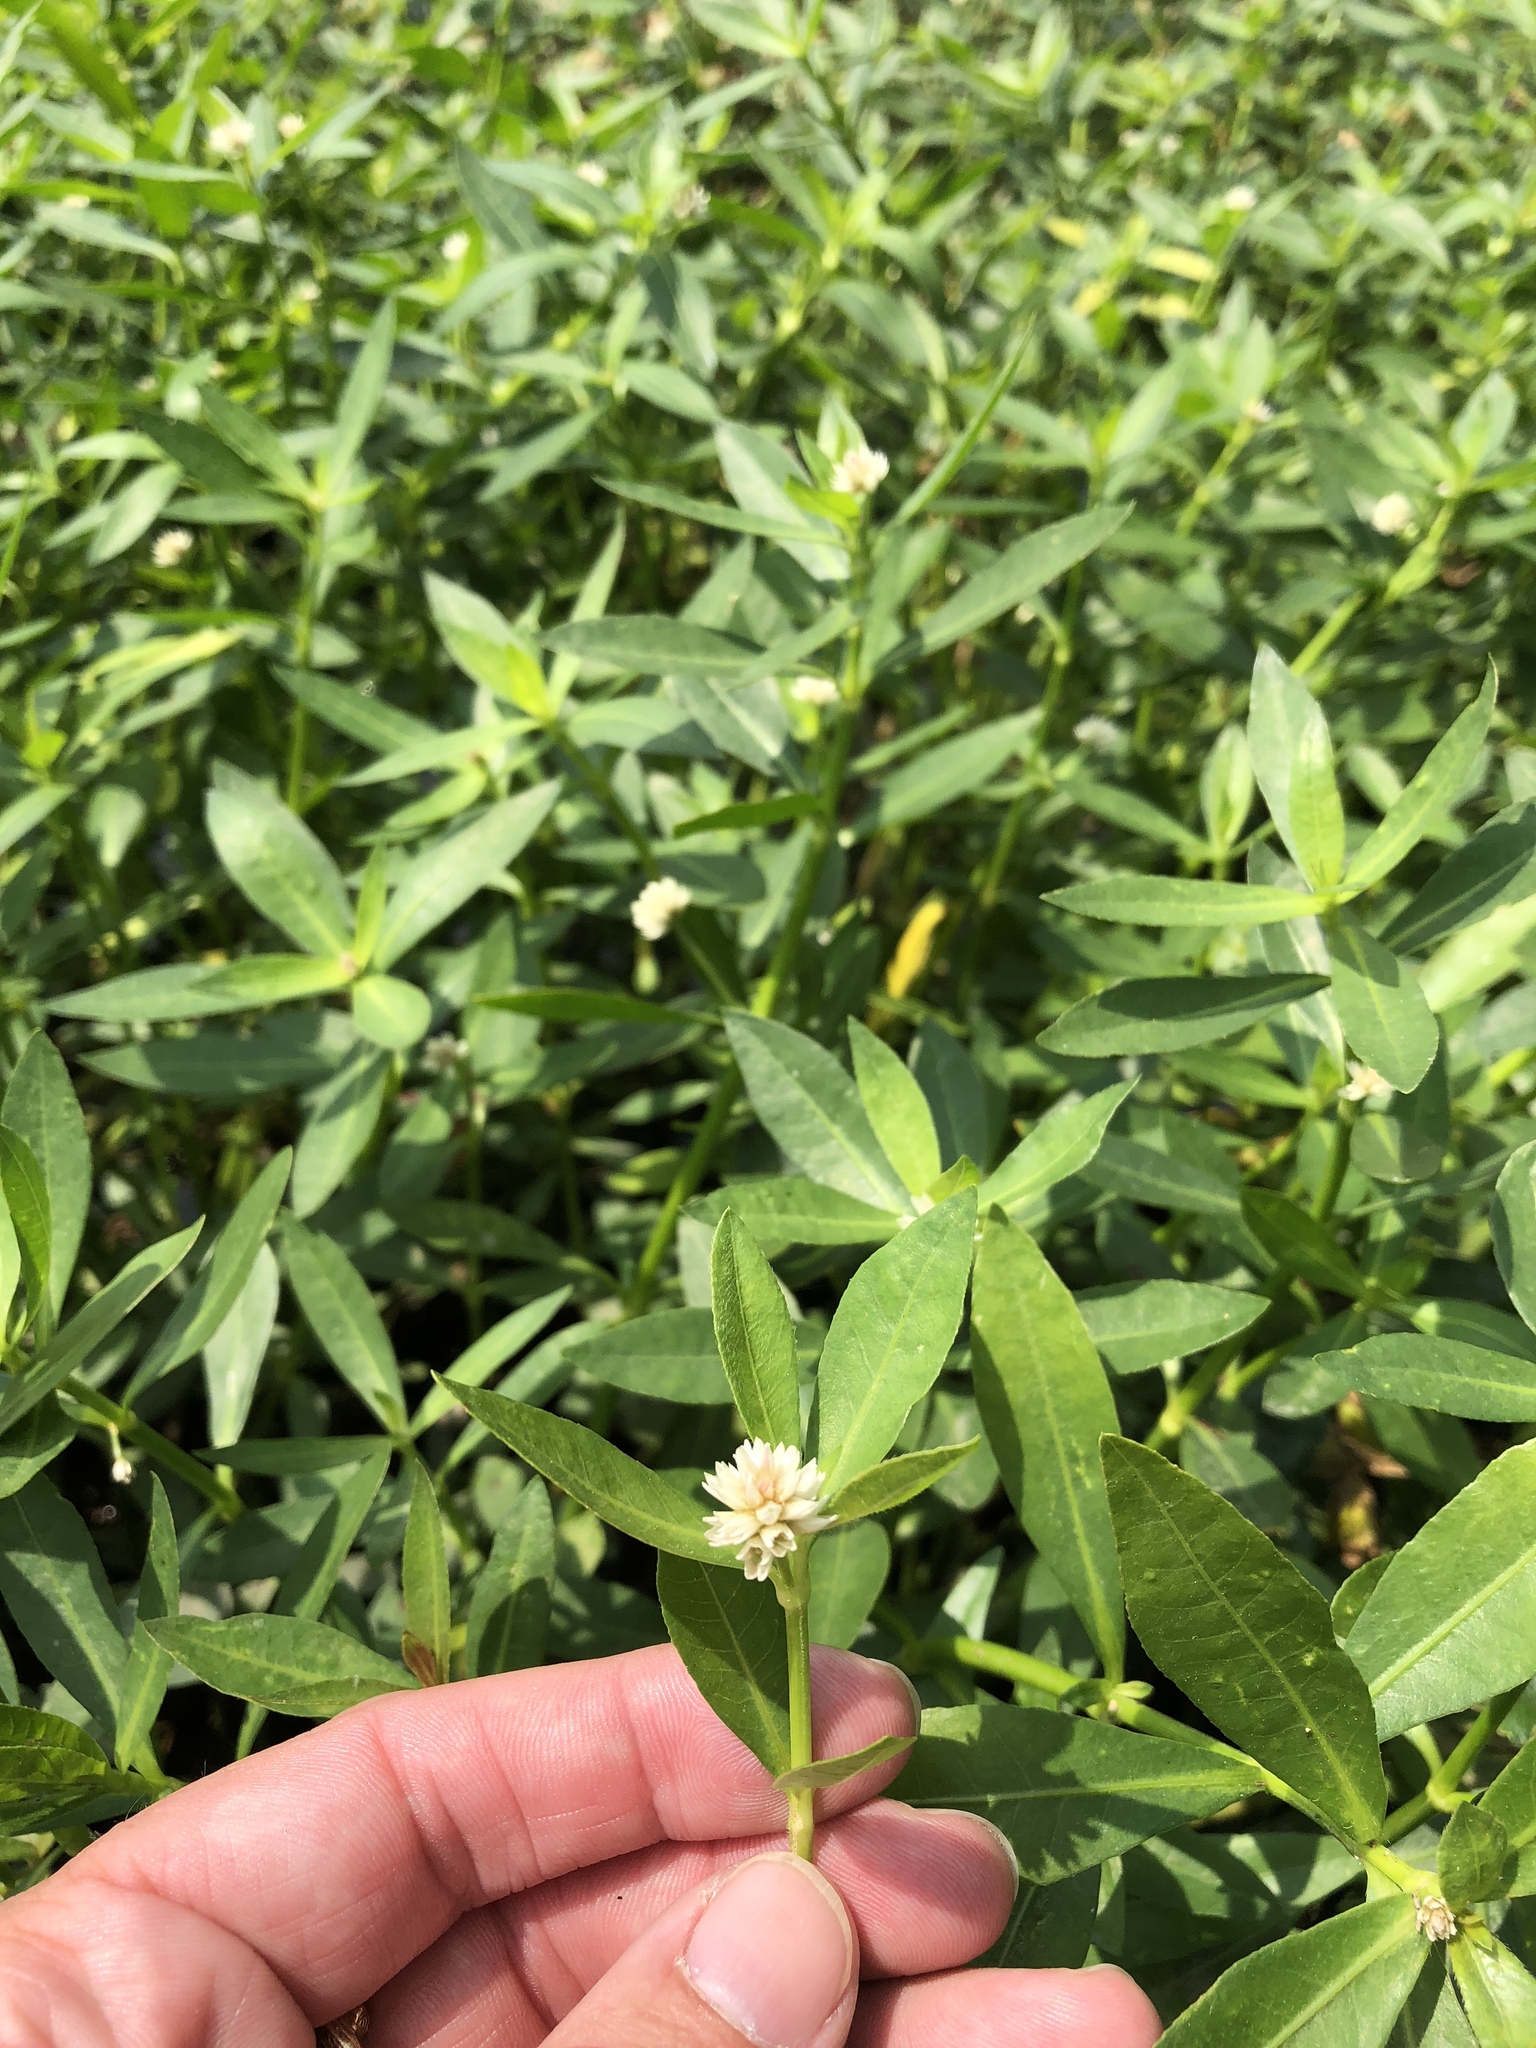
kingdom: Plantae
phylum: Tracheophyta
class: Magnoliopsida
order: Caryophyllales
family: Amaranthaceae
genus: Alternanthera
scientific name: Alternanthera philoxeroides
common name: Alligatorweed
